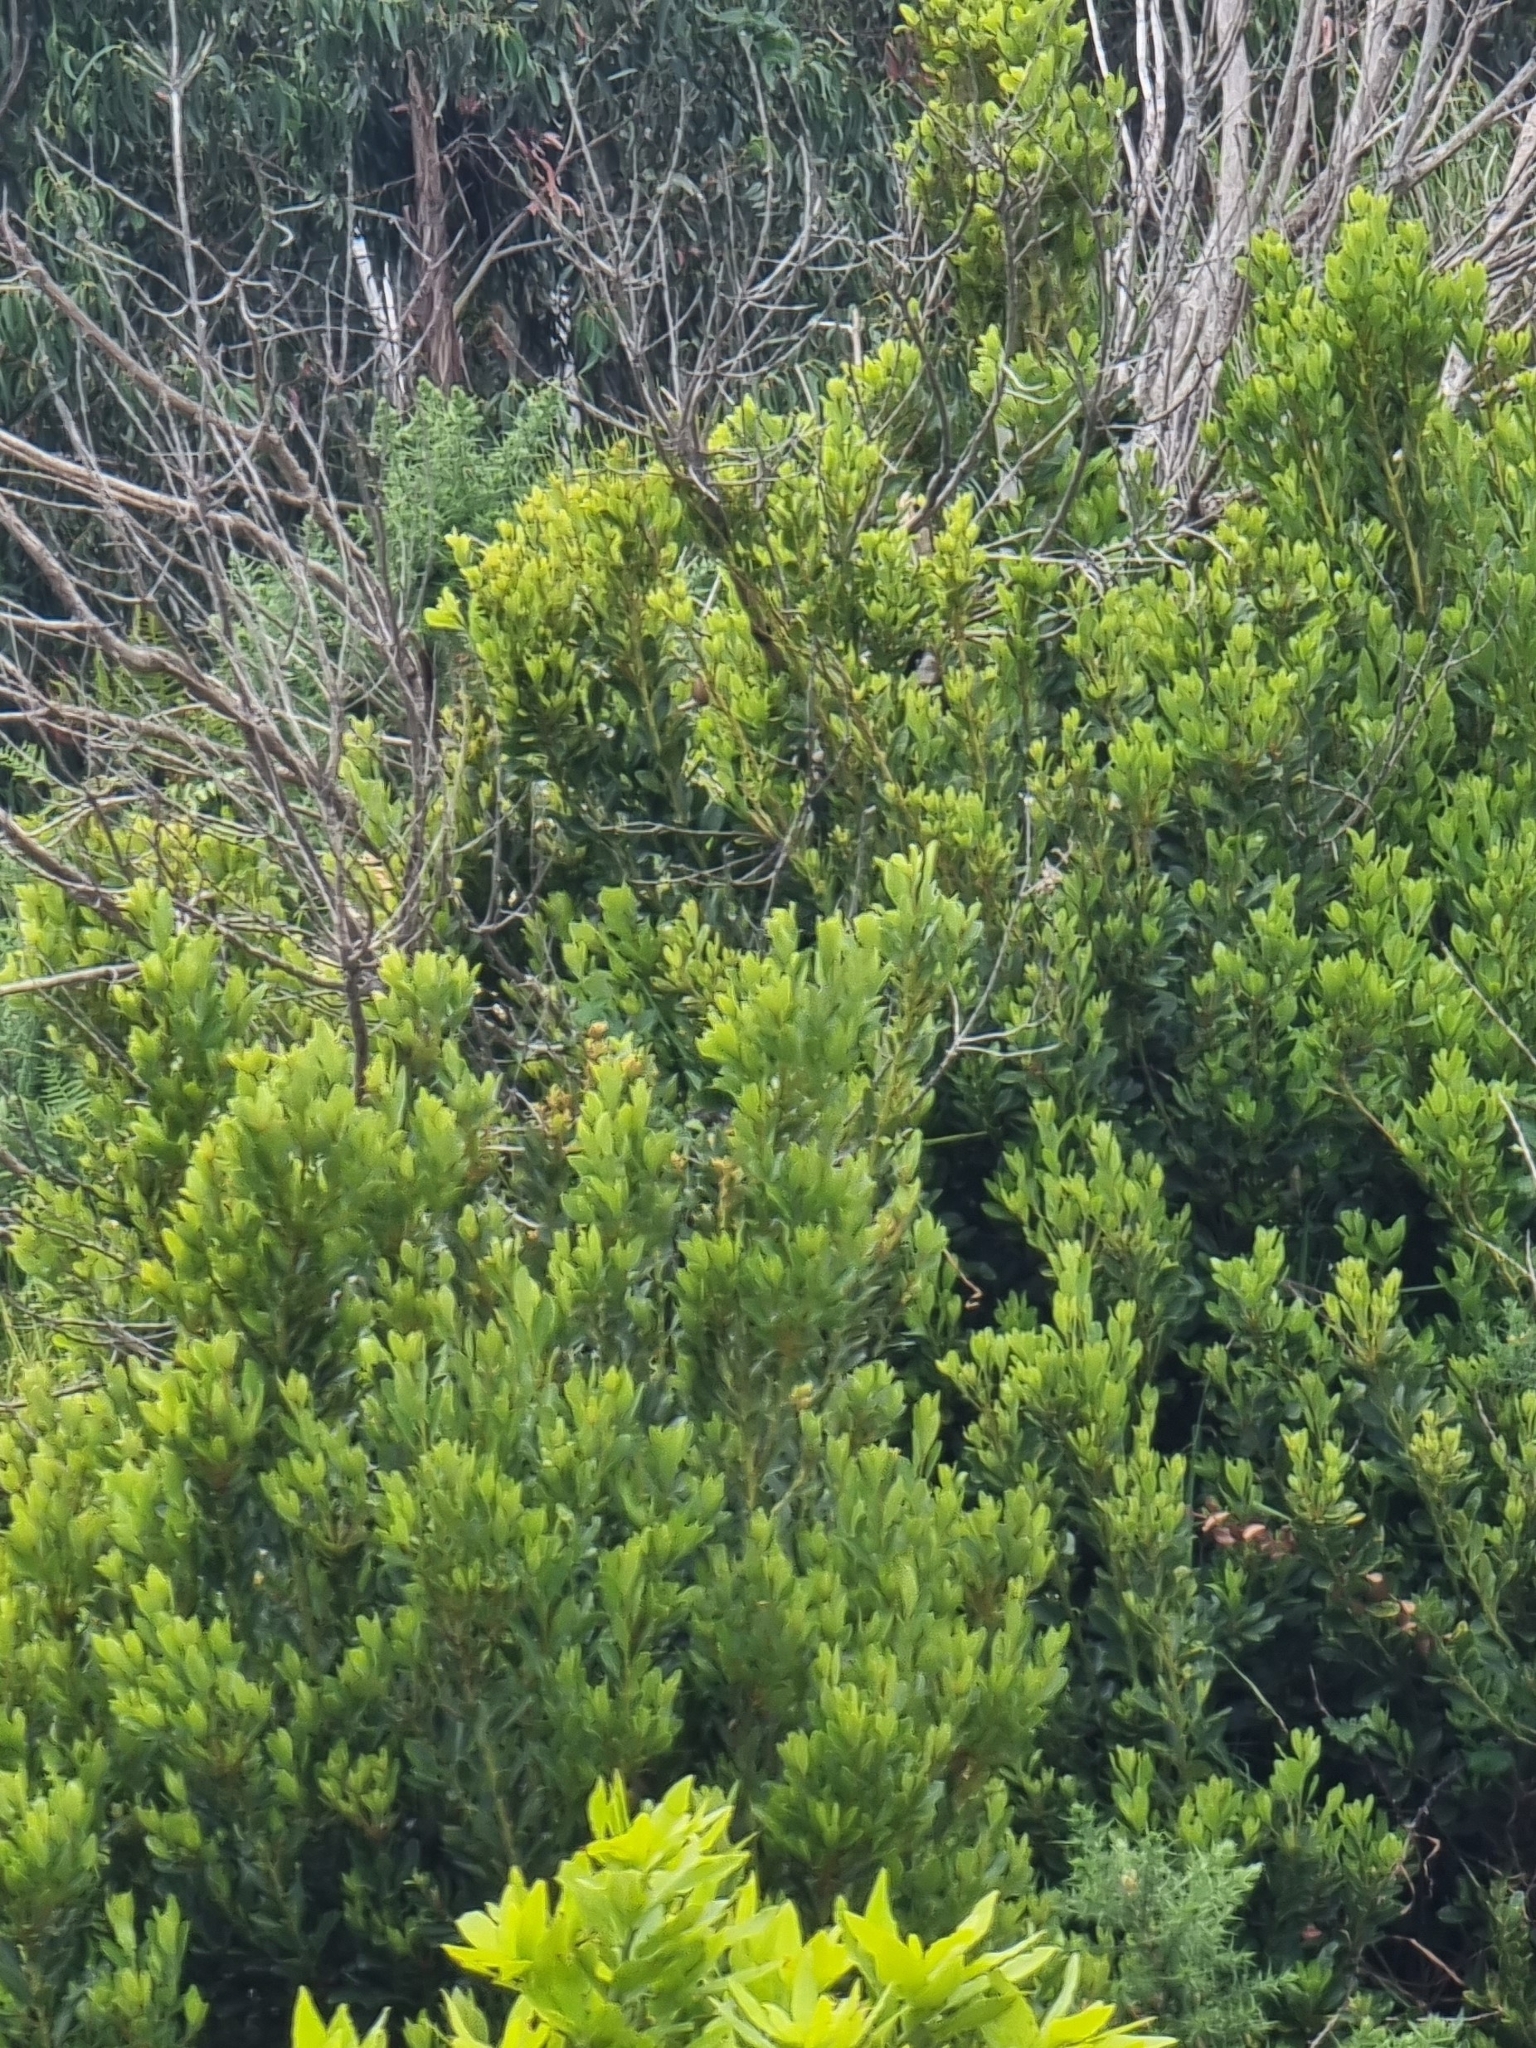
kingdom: Plantae
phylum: Tracheophyta
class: Magnoliopsida
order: Fagales
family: Myricaceae
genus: Morella
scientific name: Morella faya
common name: Firetree
